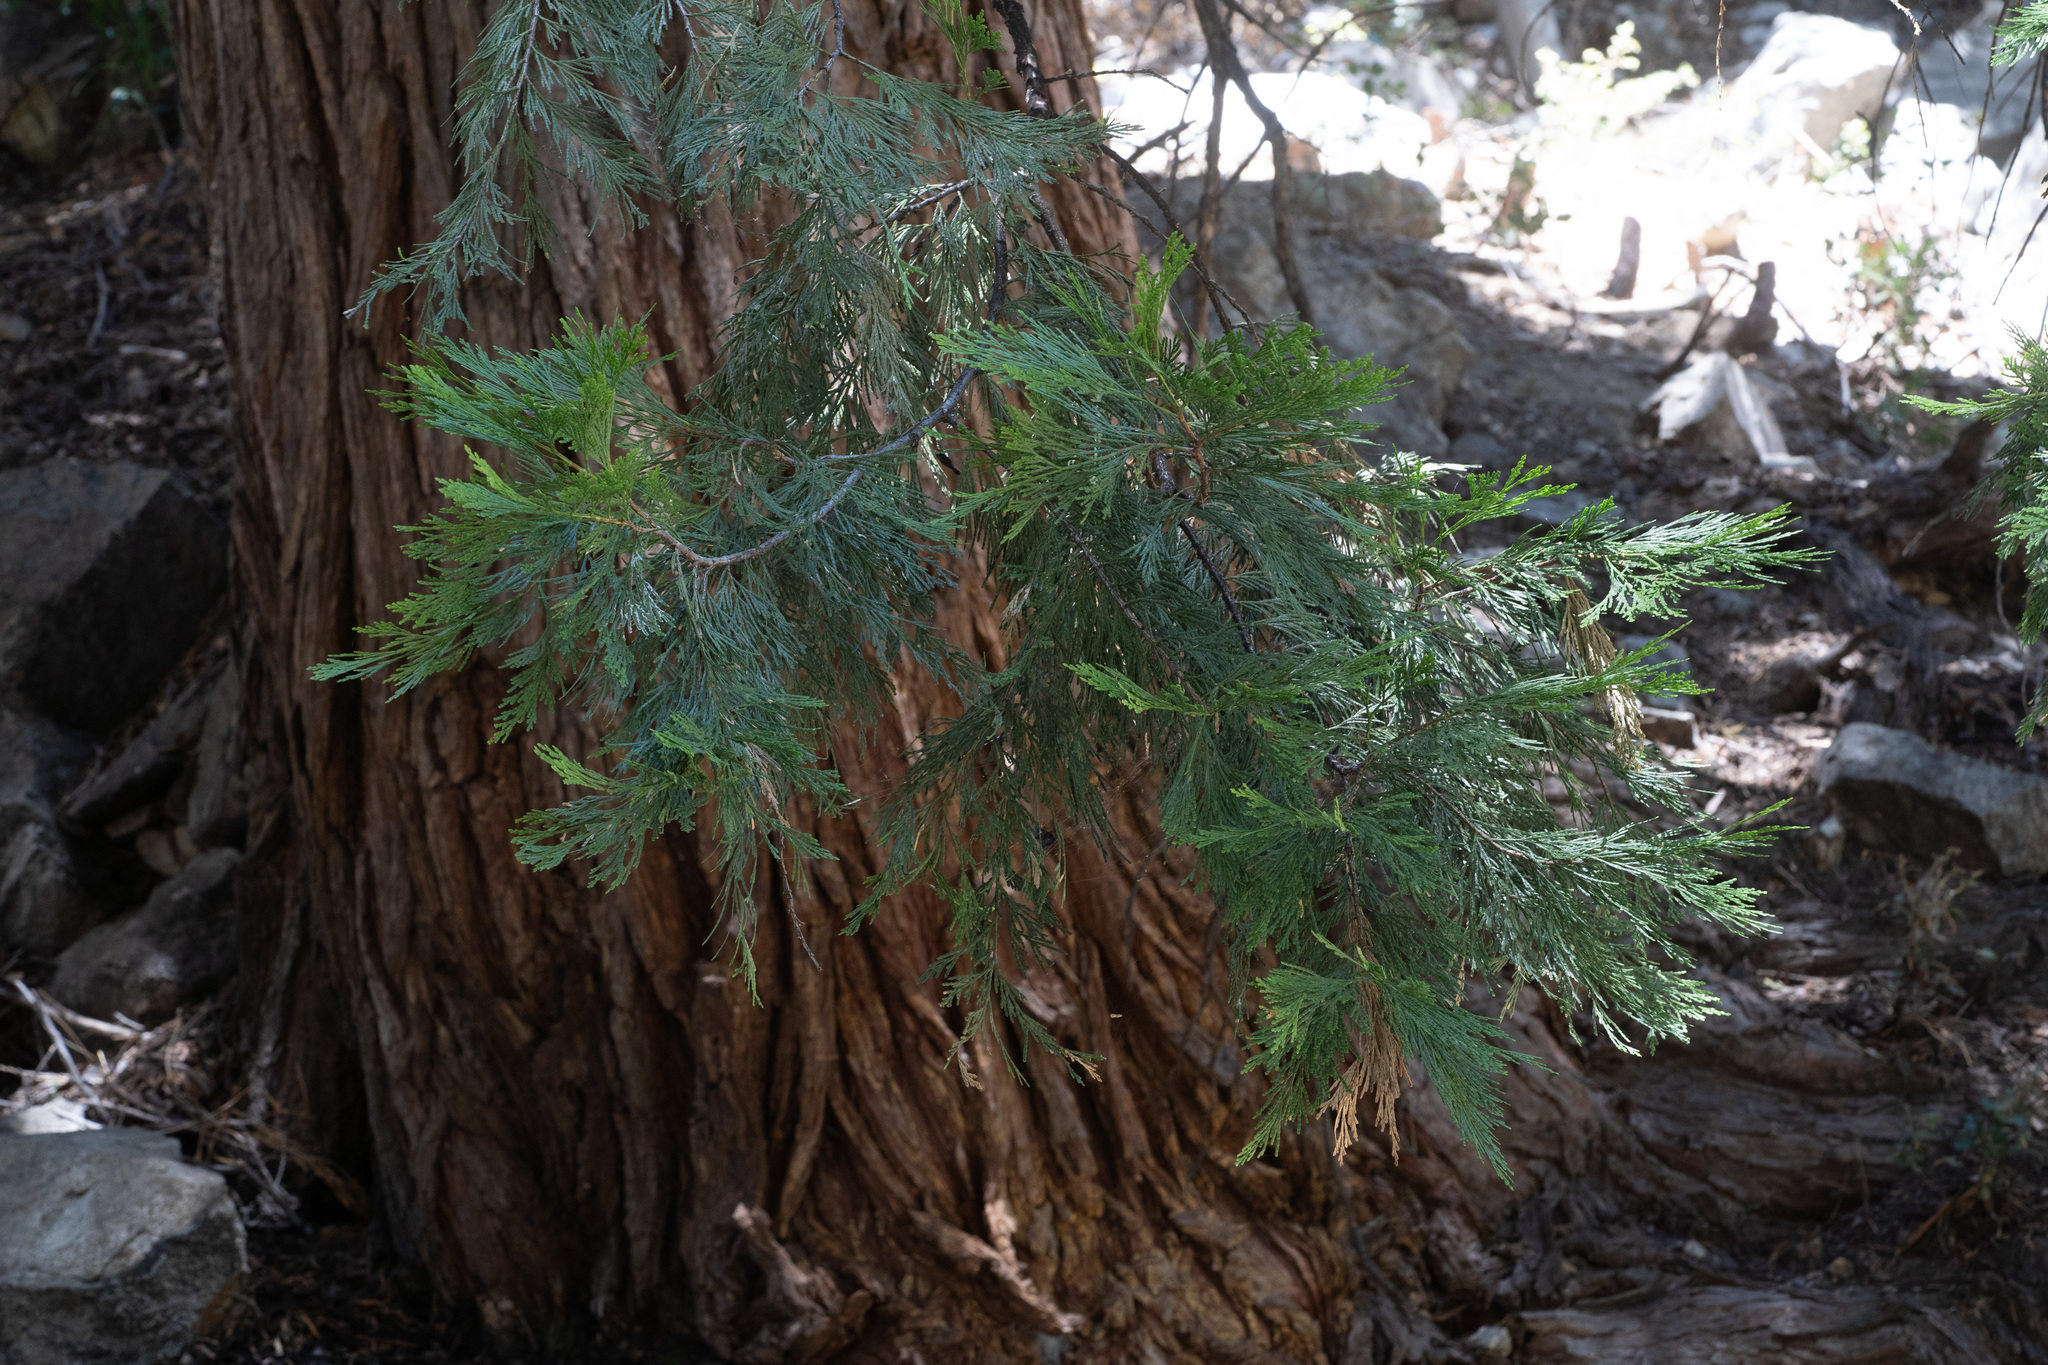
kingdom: Plantae
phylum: Tracheophyta
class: Pinopsida
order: Pinales
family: Cupressaceae
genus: Calocedrus
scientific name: Calocedrus decurrens
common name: Californian incense-cedar
